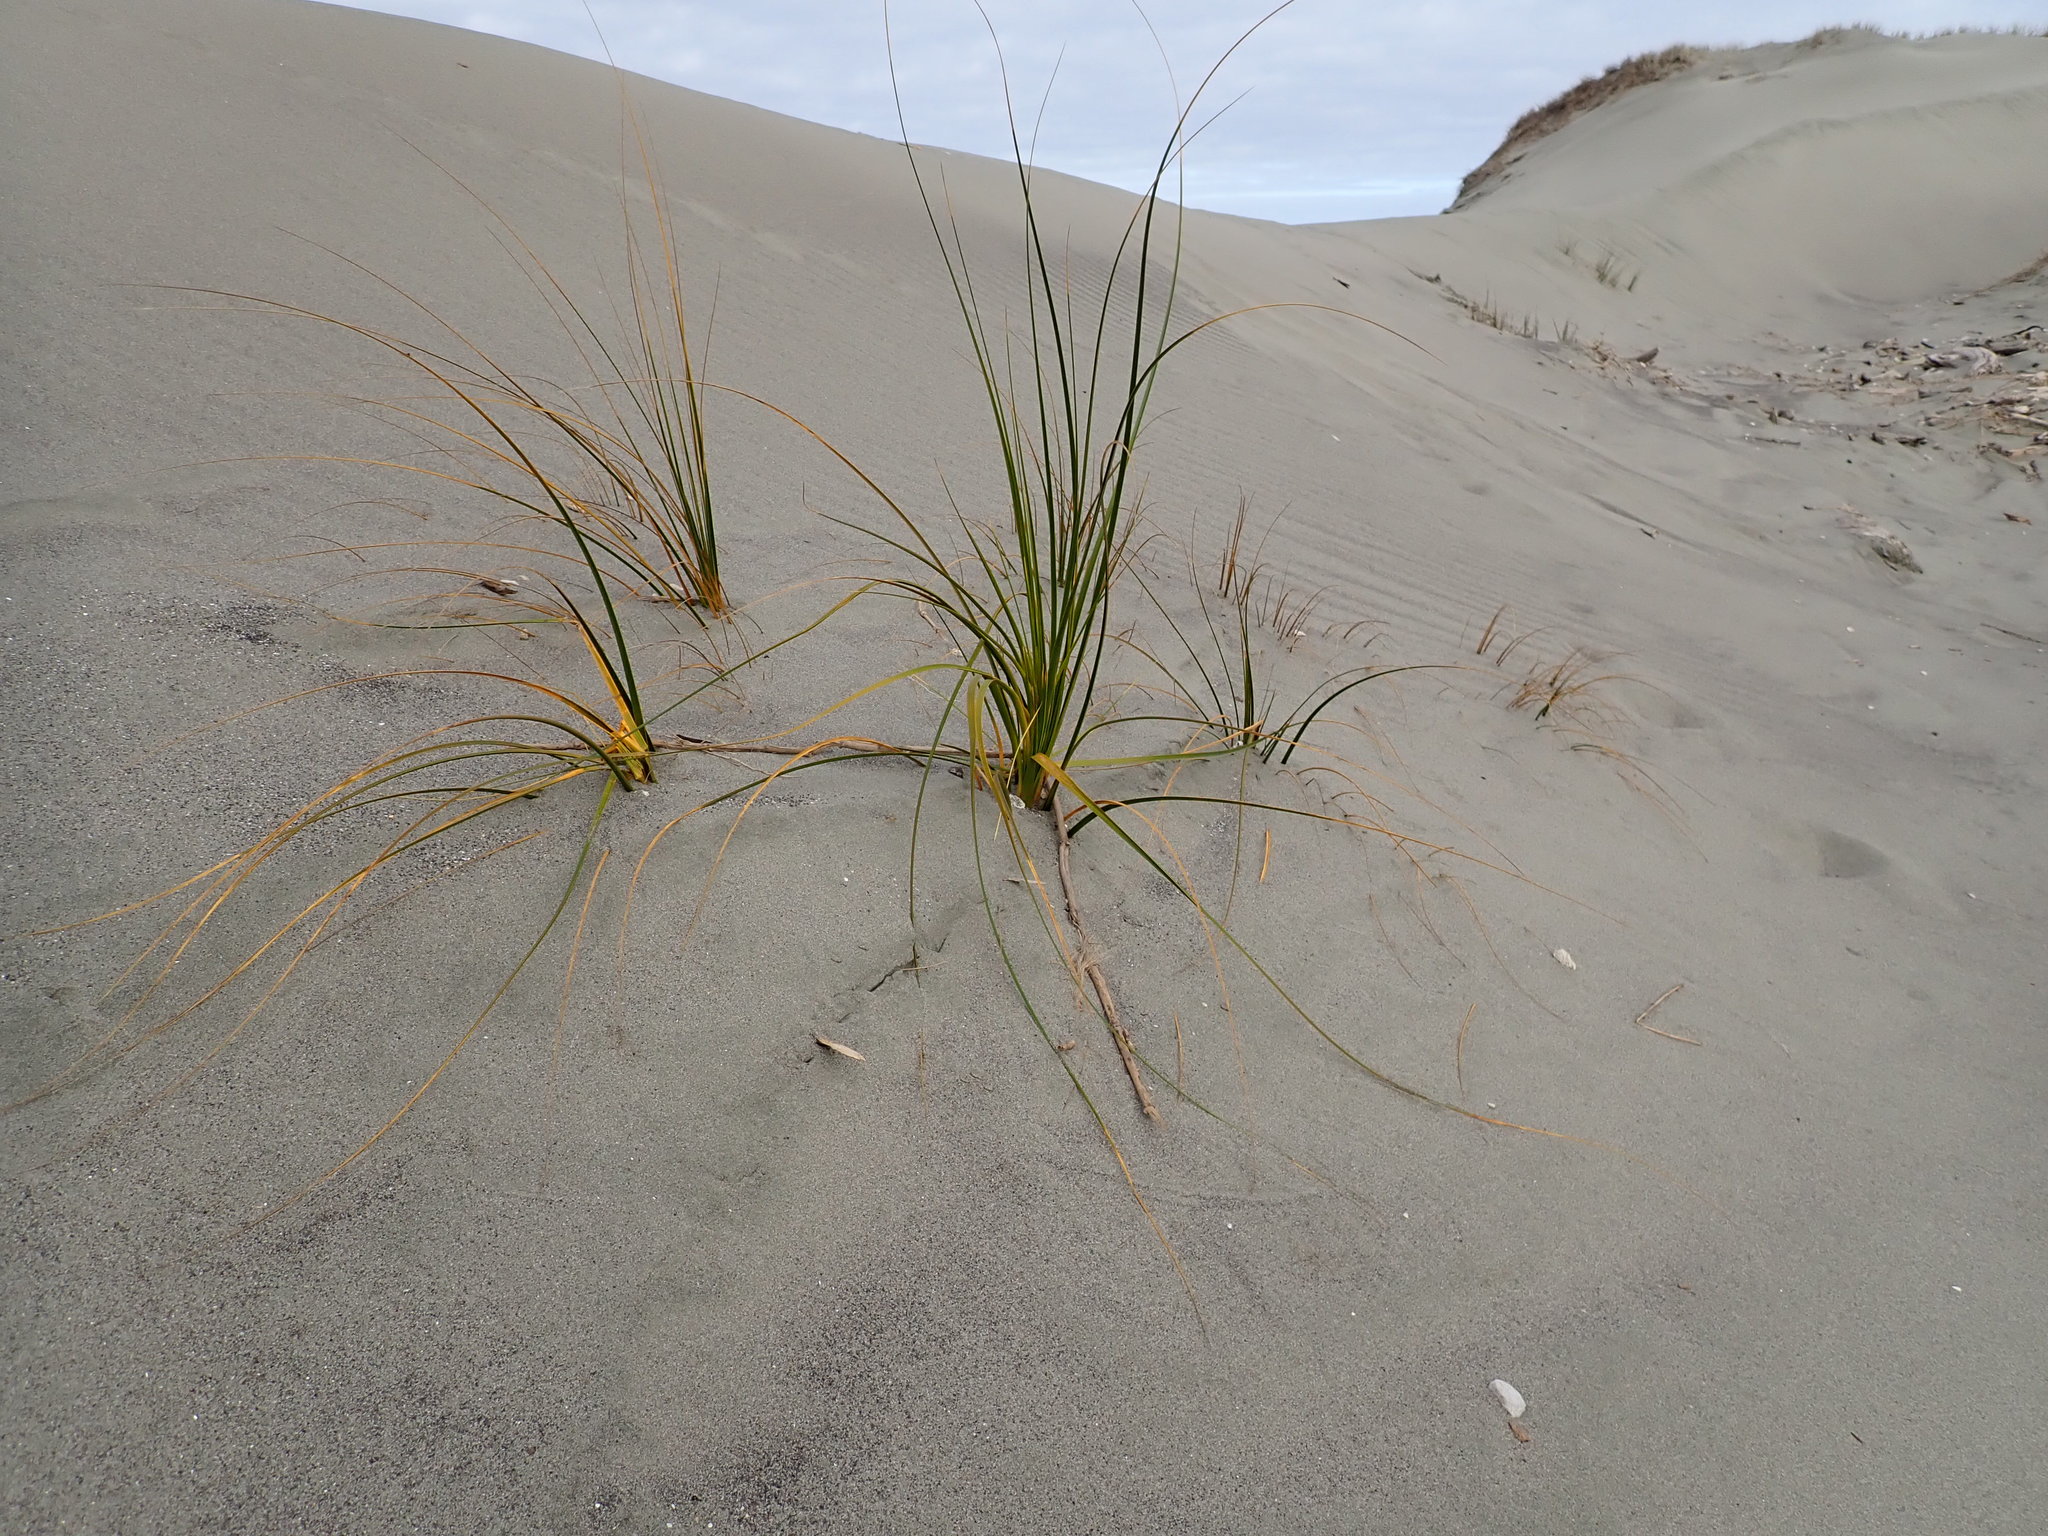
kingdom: Plantae
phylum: Tracheophyta
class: Liliopsida
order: Poales
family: Cyperaceae
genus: Ficinia
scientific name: Ficinia spiralis
